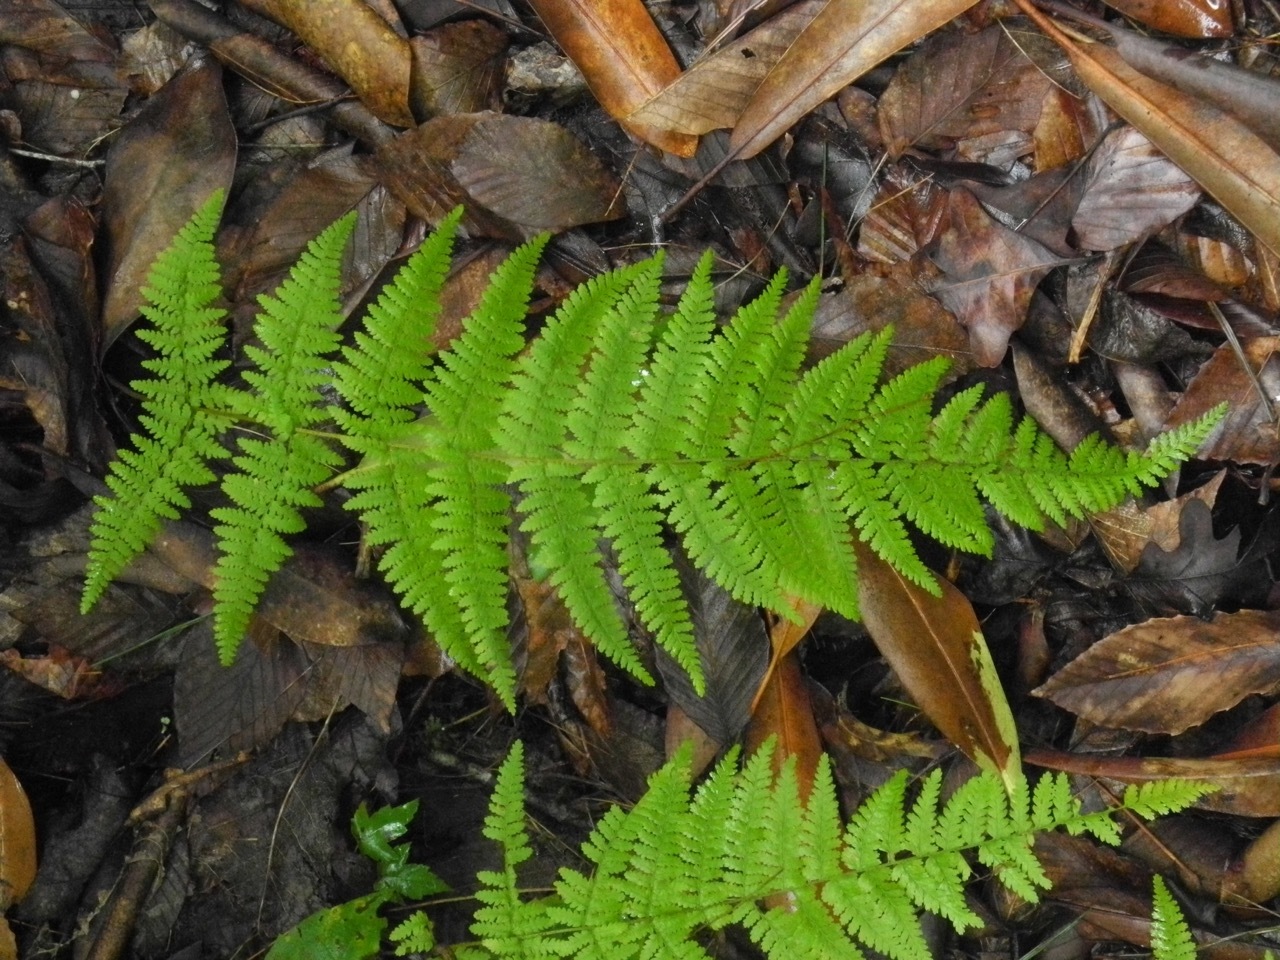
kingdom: Plantae
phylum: Tracheophyta
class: Polypodiopsida
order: Polypodiales
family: Dennstaedtiaceae
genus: Sitobolium
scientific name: Sitobolium punctilobum
